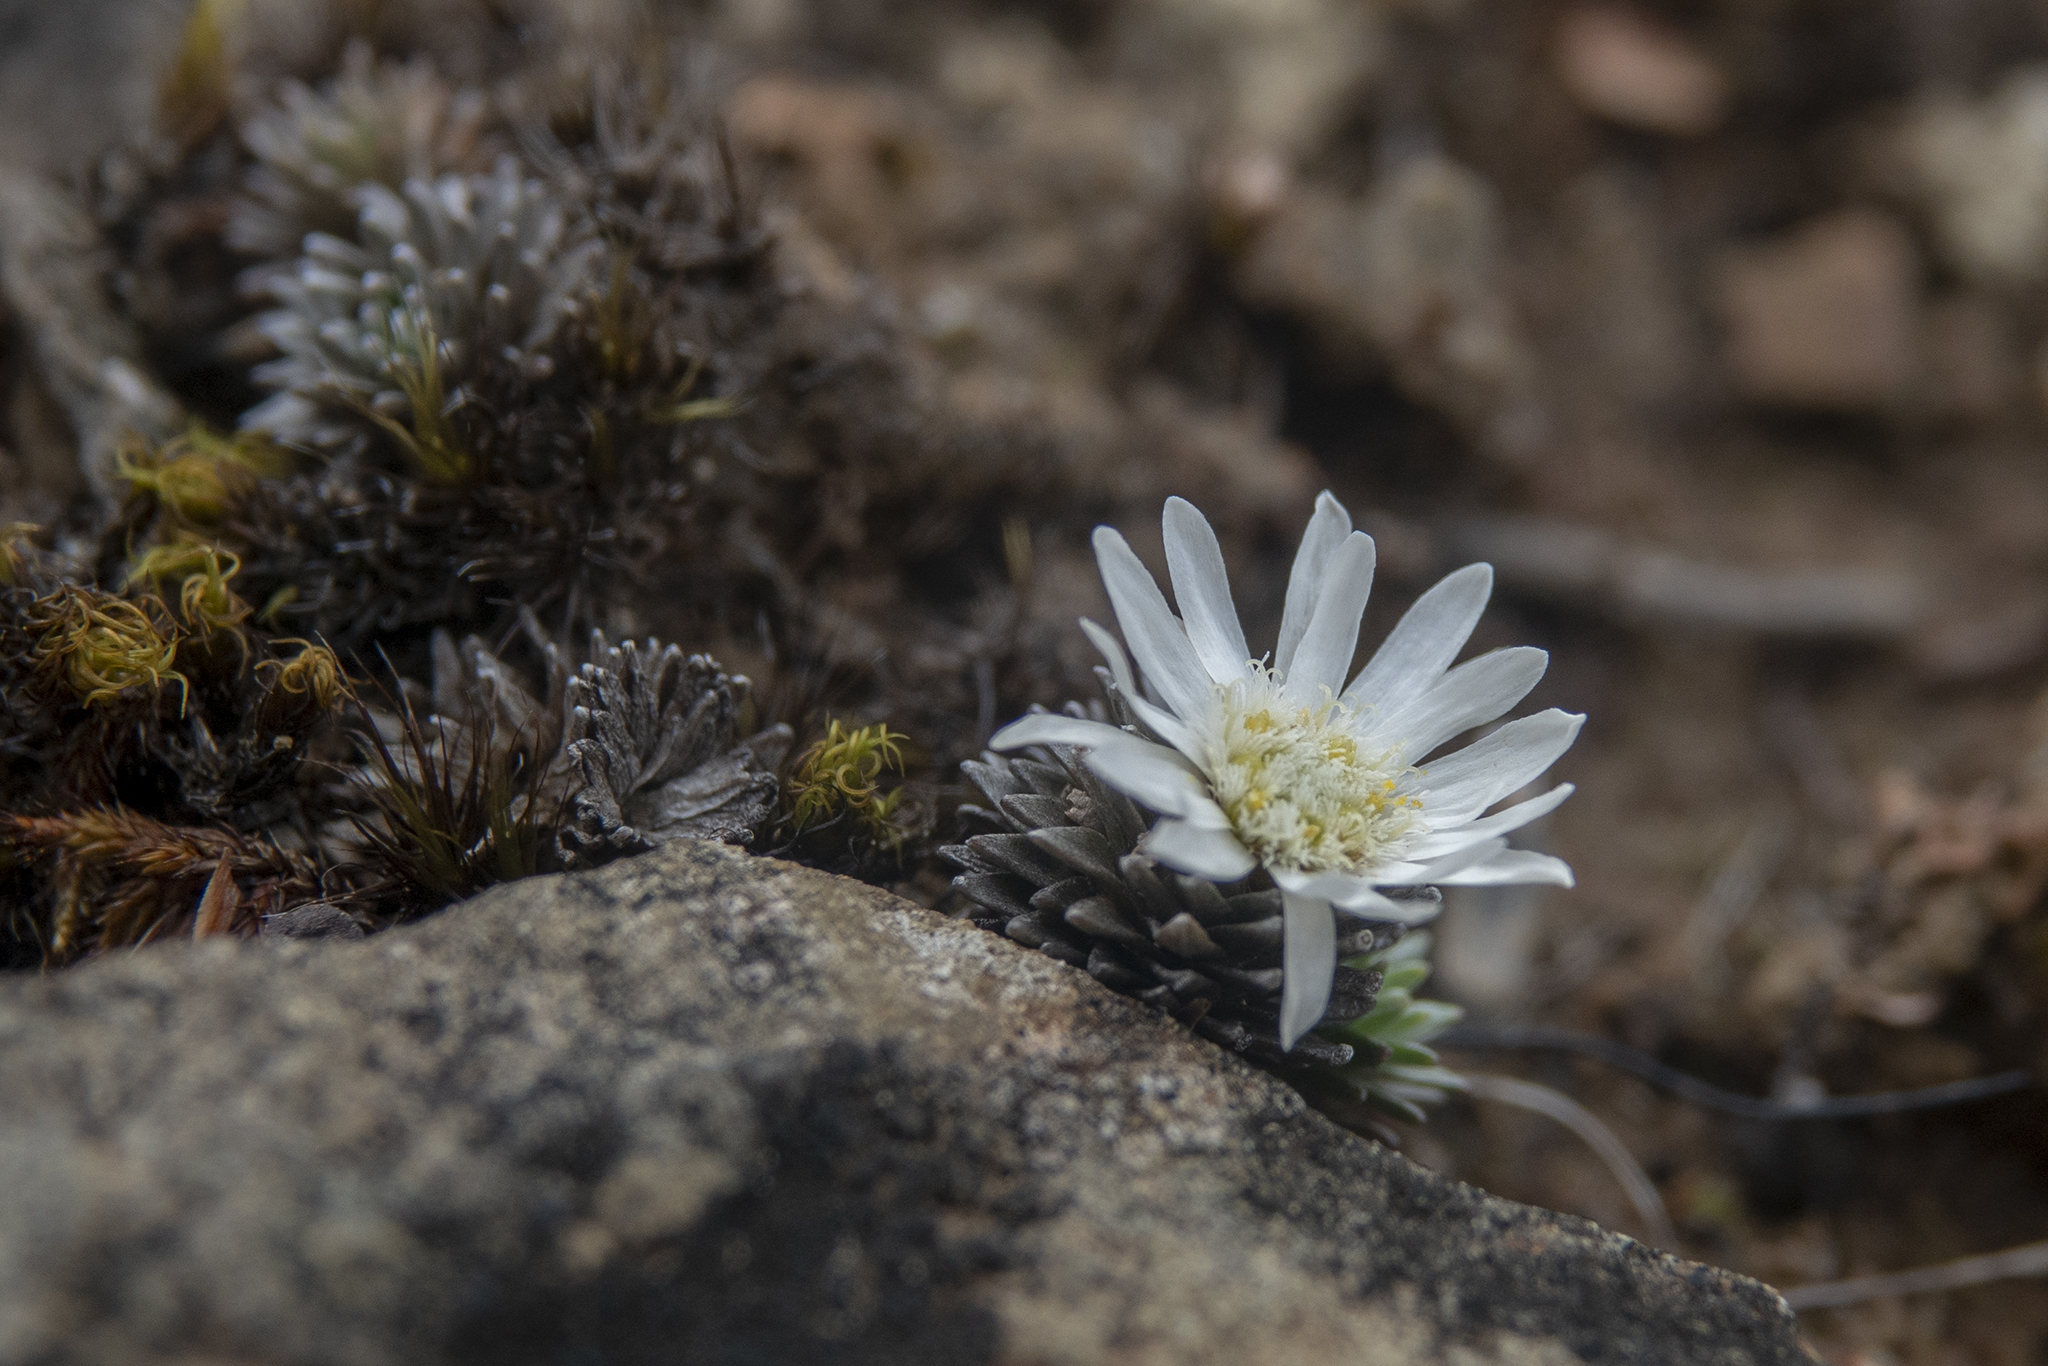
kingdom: Plantae
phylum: Tracheophyta
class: Magnoliopsida
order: Asterales
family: Asteraceae
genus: Raoulia
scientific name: Raoulia grandiflora
